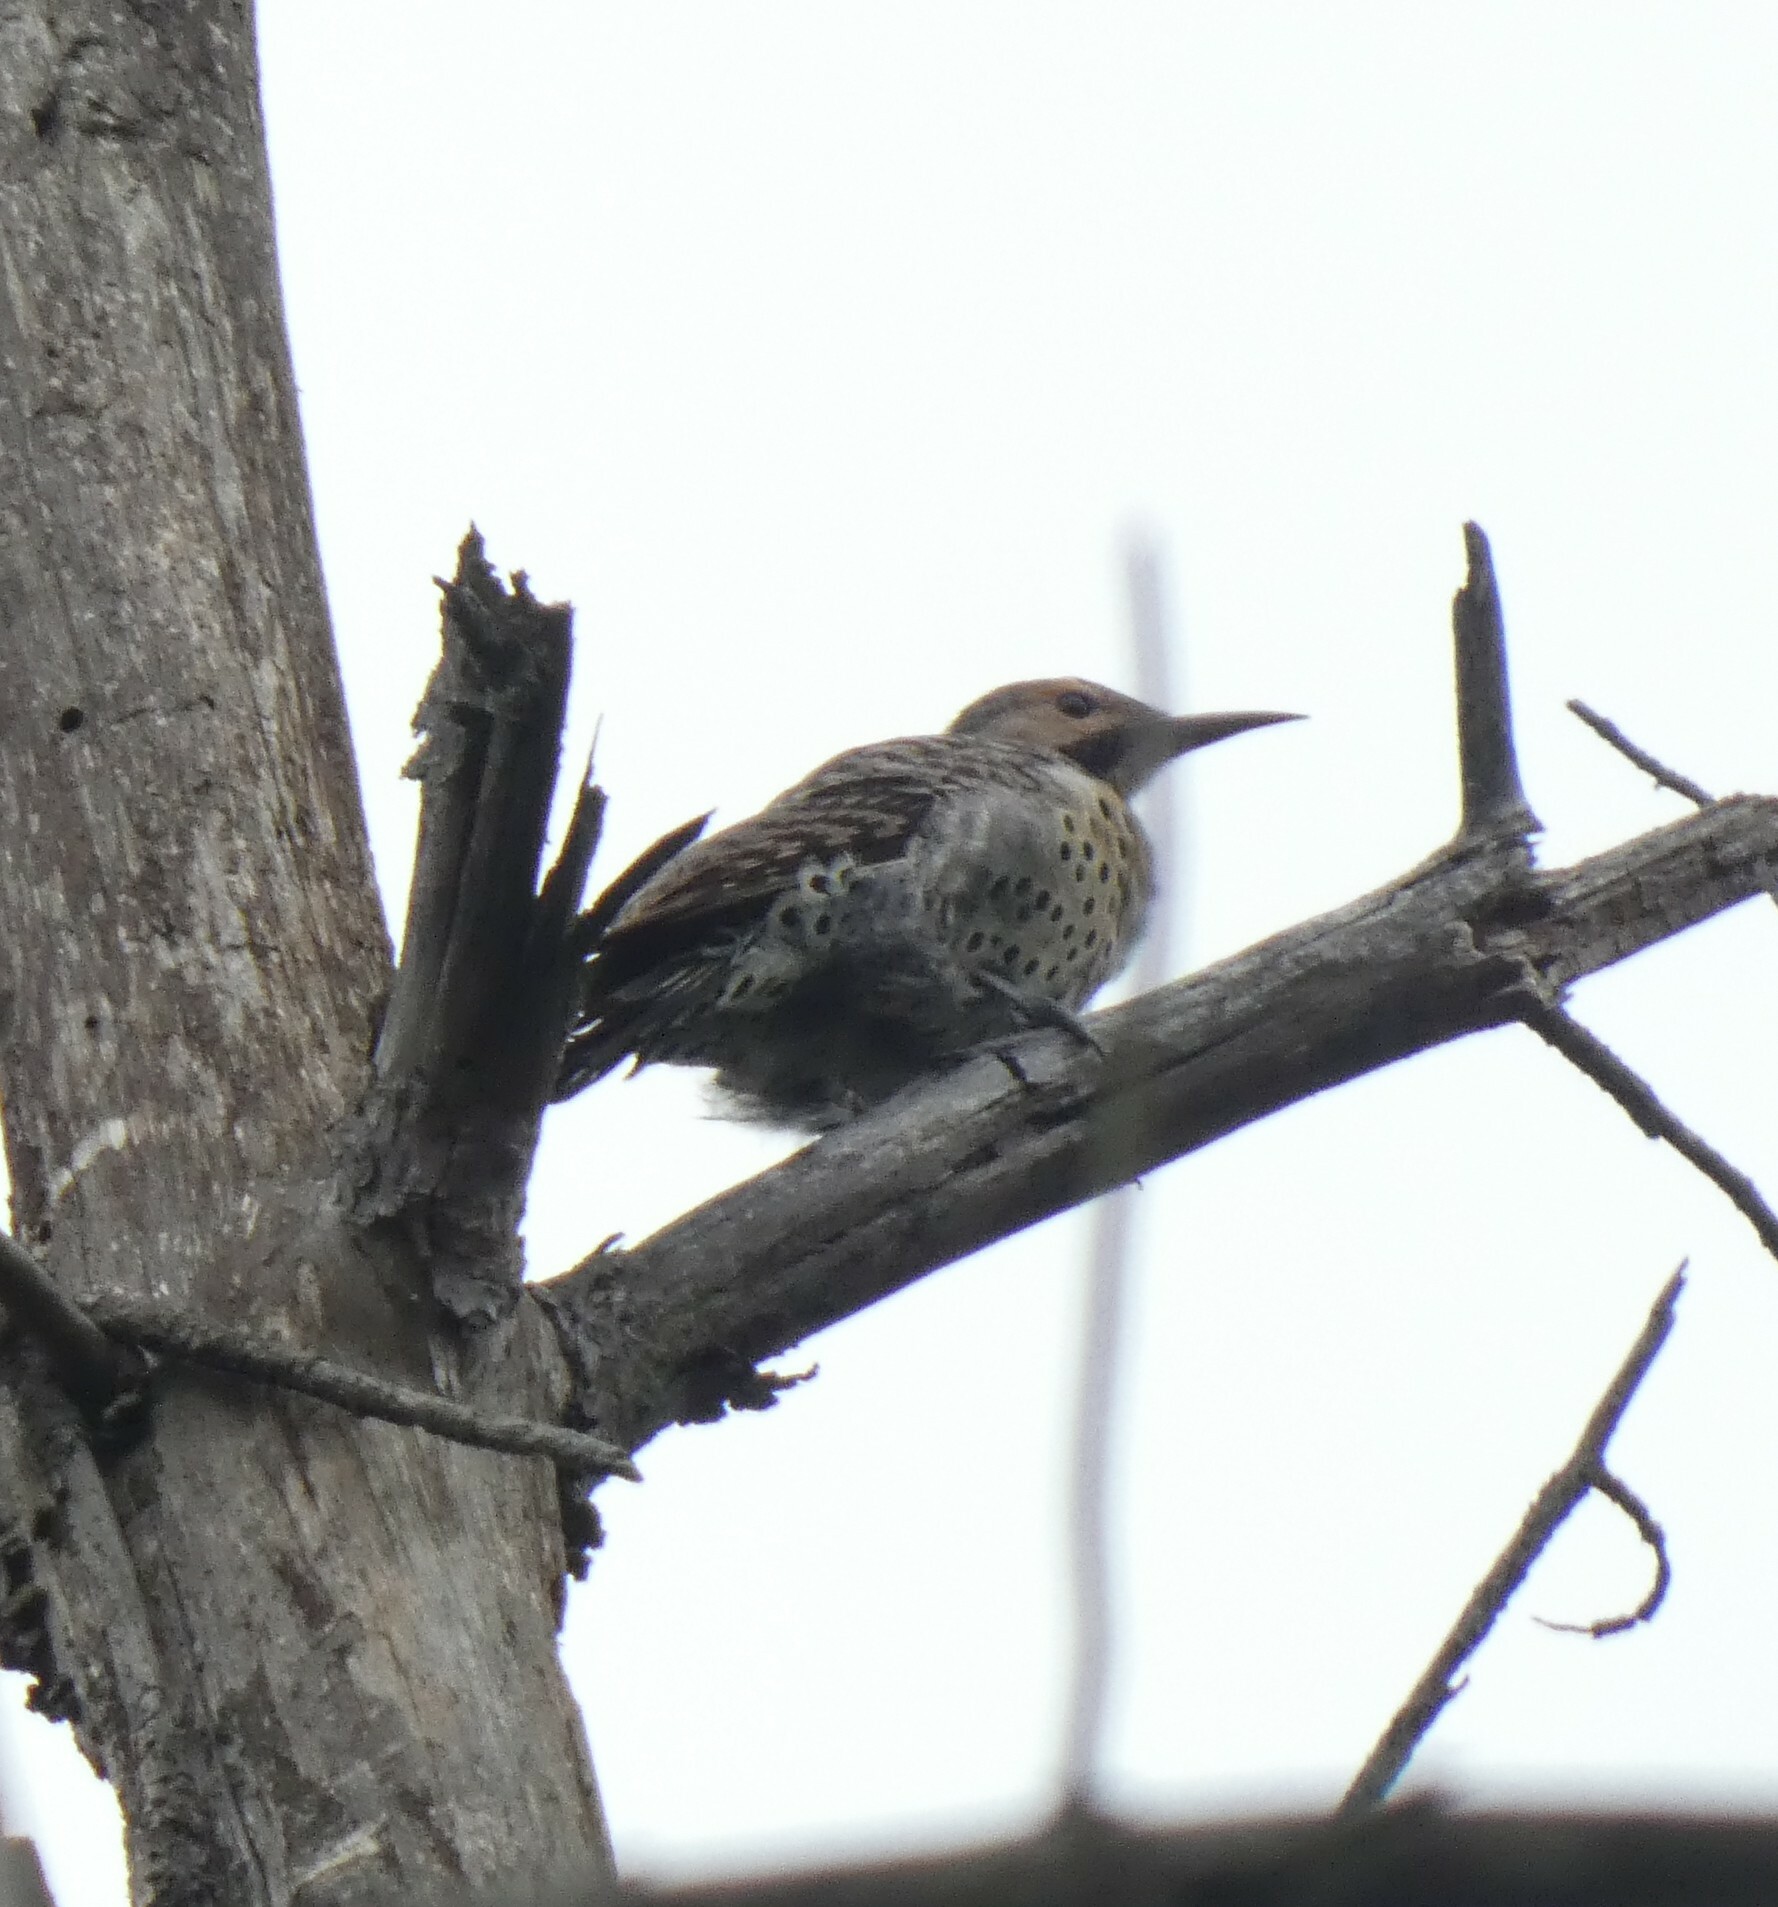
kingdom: Animalia
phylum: Chordata
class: Aves
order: Piciformes
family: Picidae
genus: Colaptes
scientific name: Colaptes auratus
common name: Northern flicker
